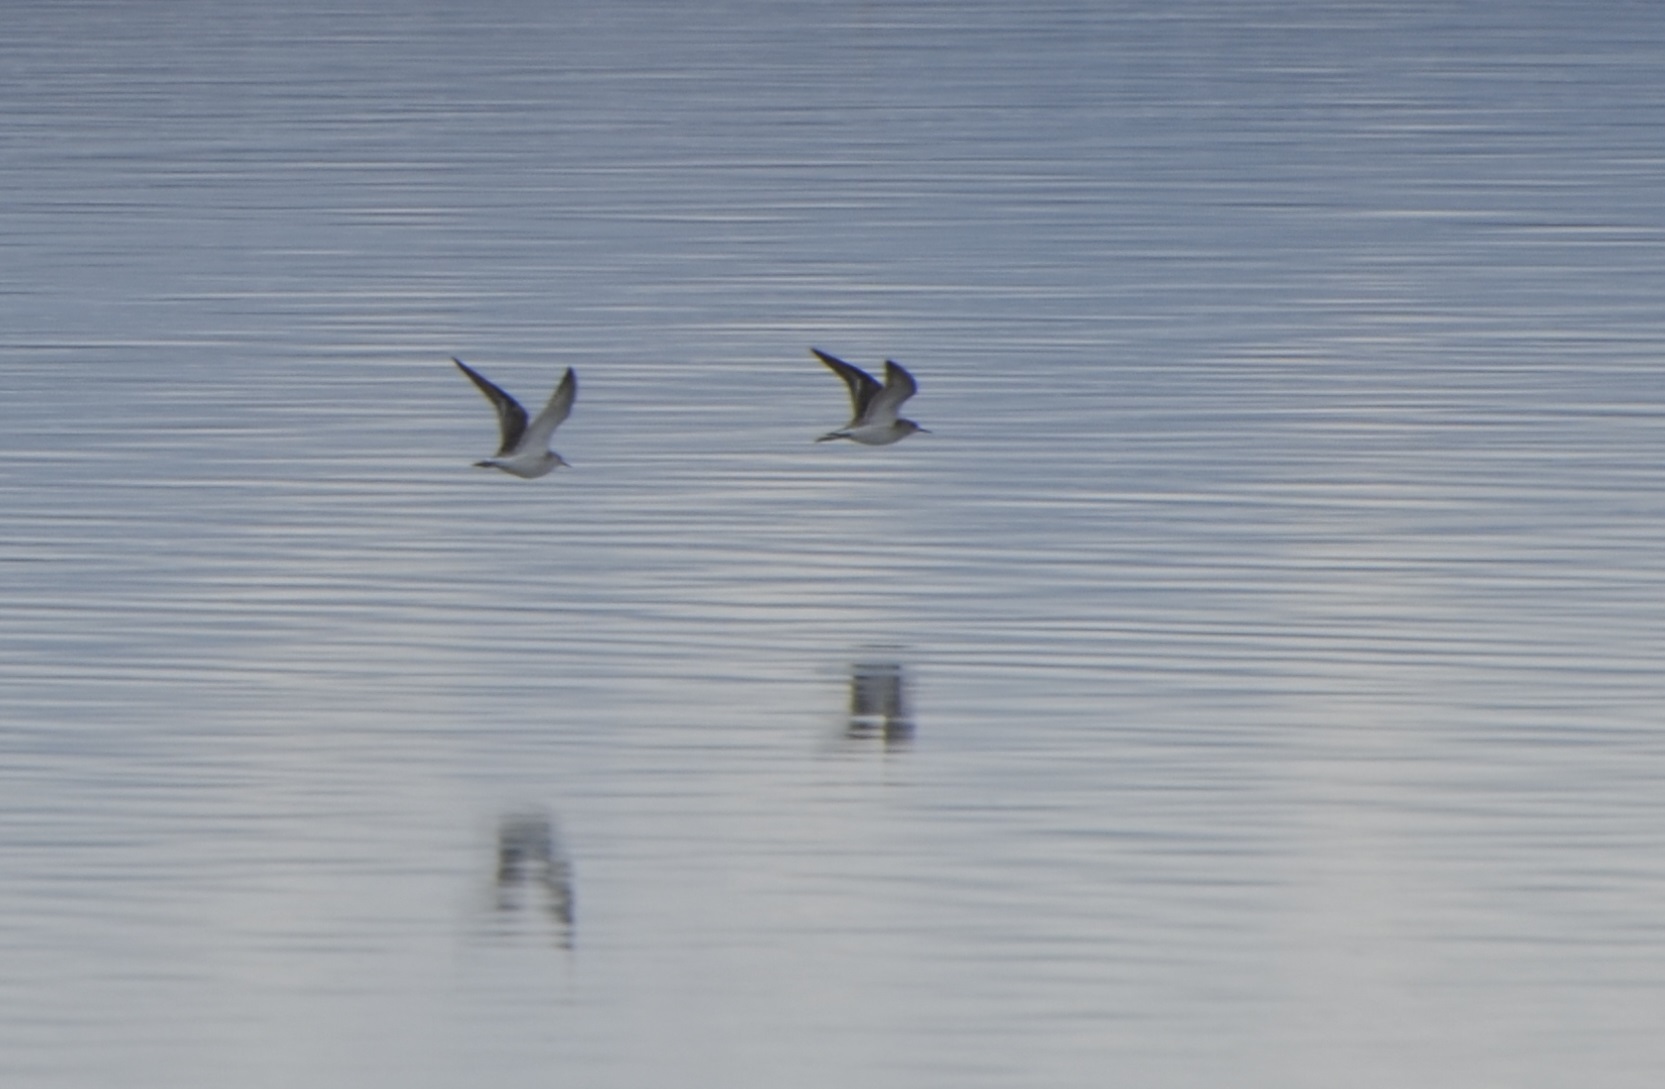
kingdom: Animalia
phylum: Chordata
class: Aves
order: Charadriiformes
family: Scolopacidae
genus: Calidris
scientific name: Calidris pugnax
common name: Ruff
